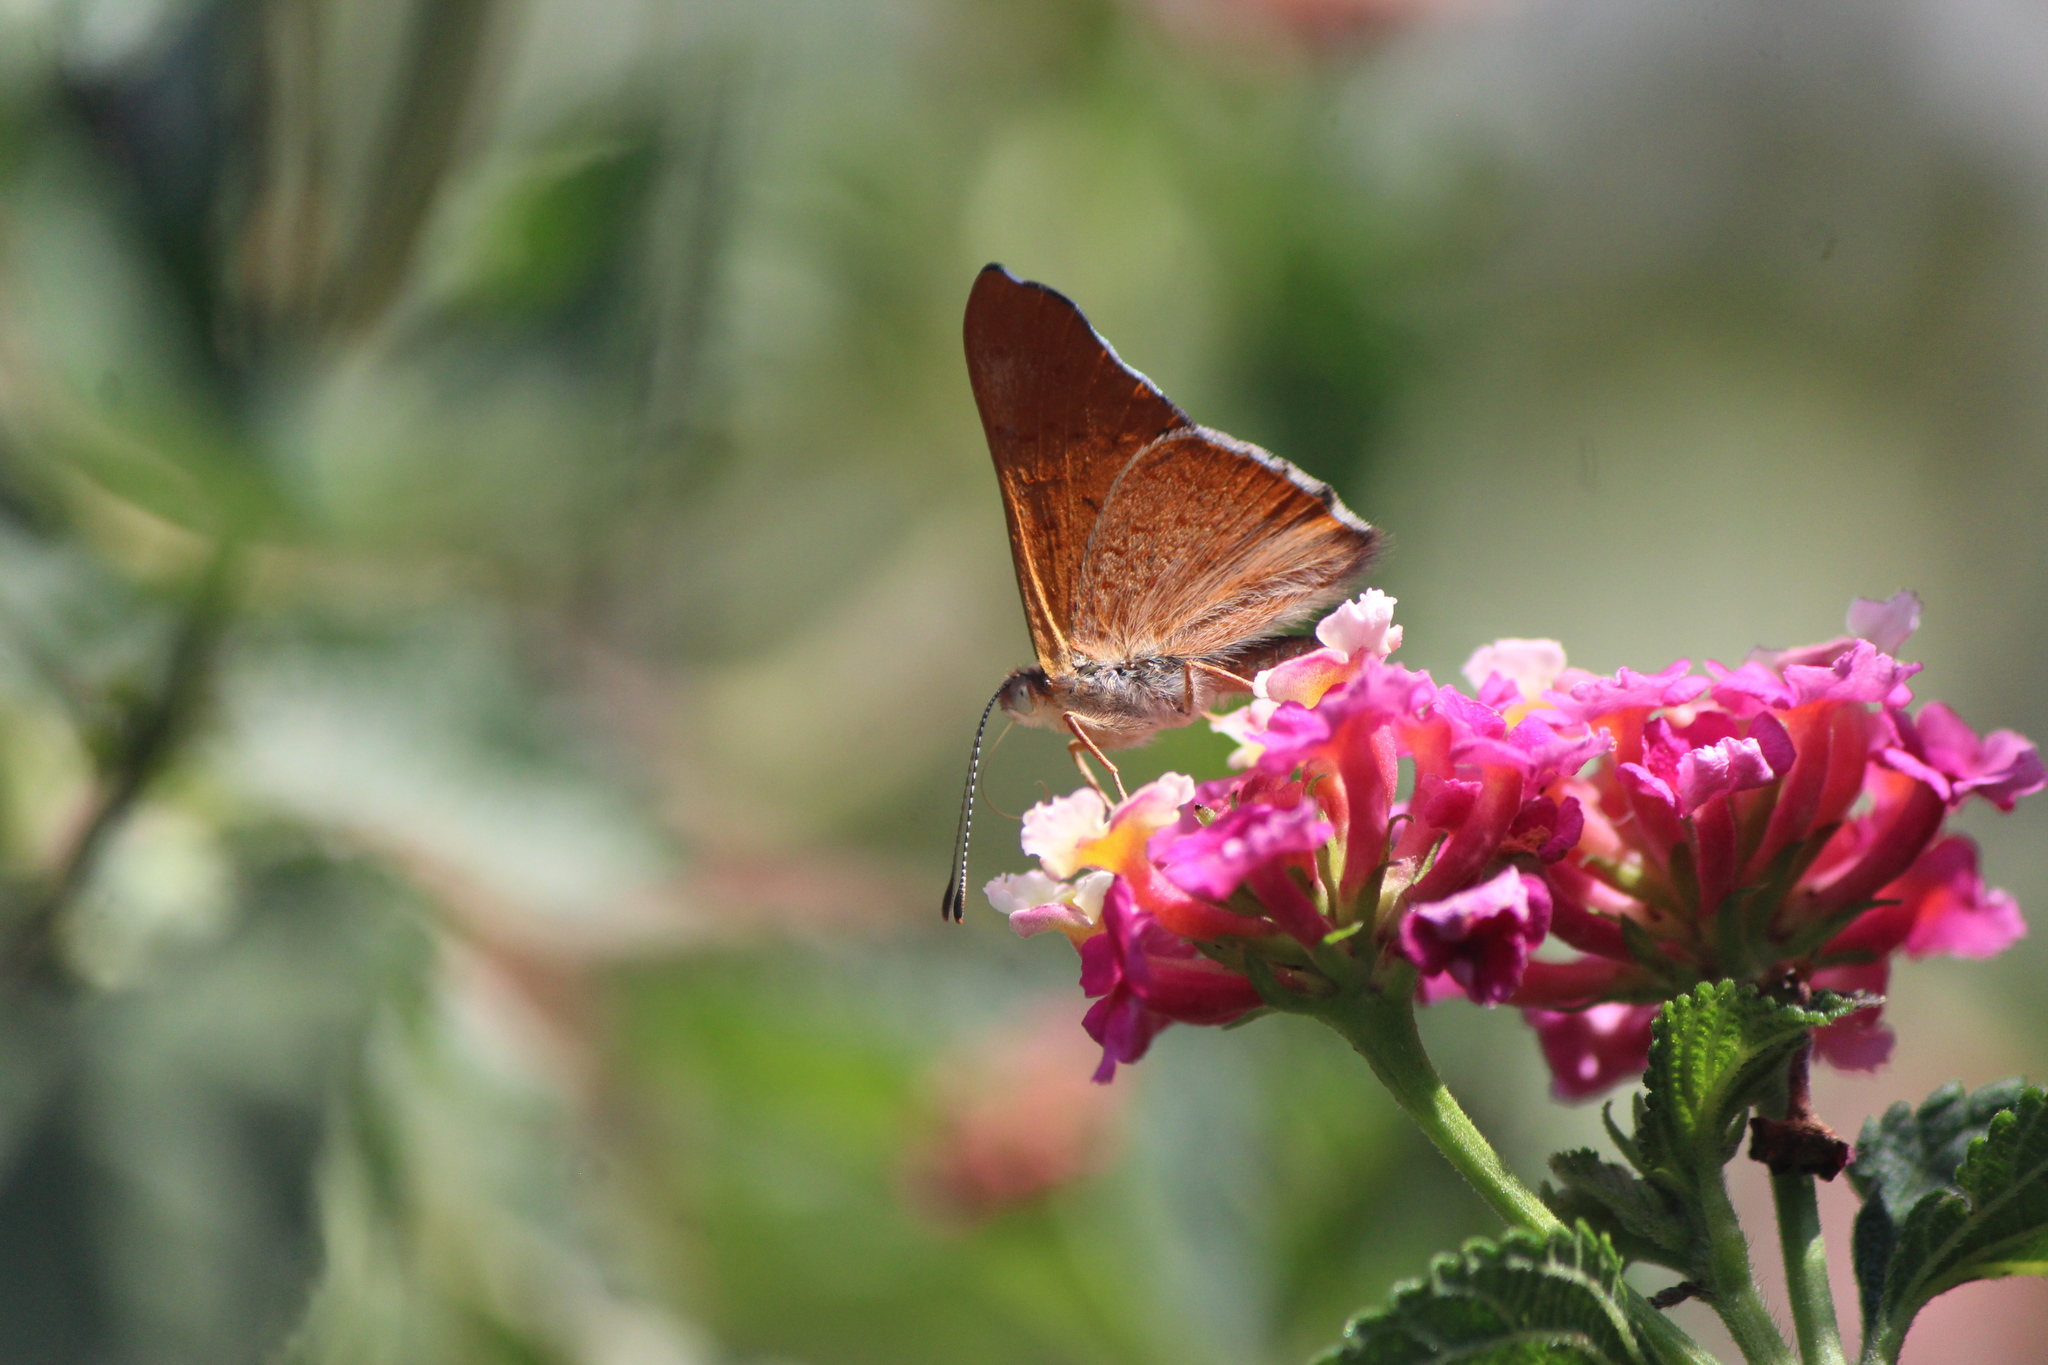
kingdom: Animalia
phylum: Arthropoda
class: Insecta
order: Lepidoptera
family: Riodinidae
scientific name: Riodinidae
